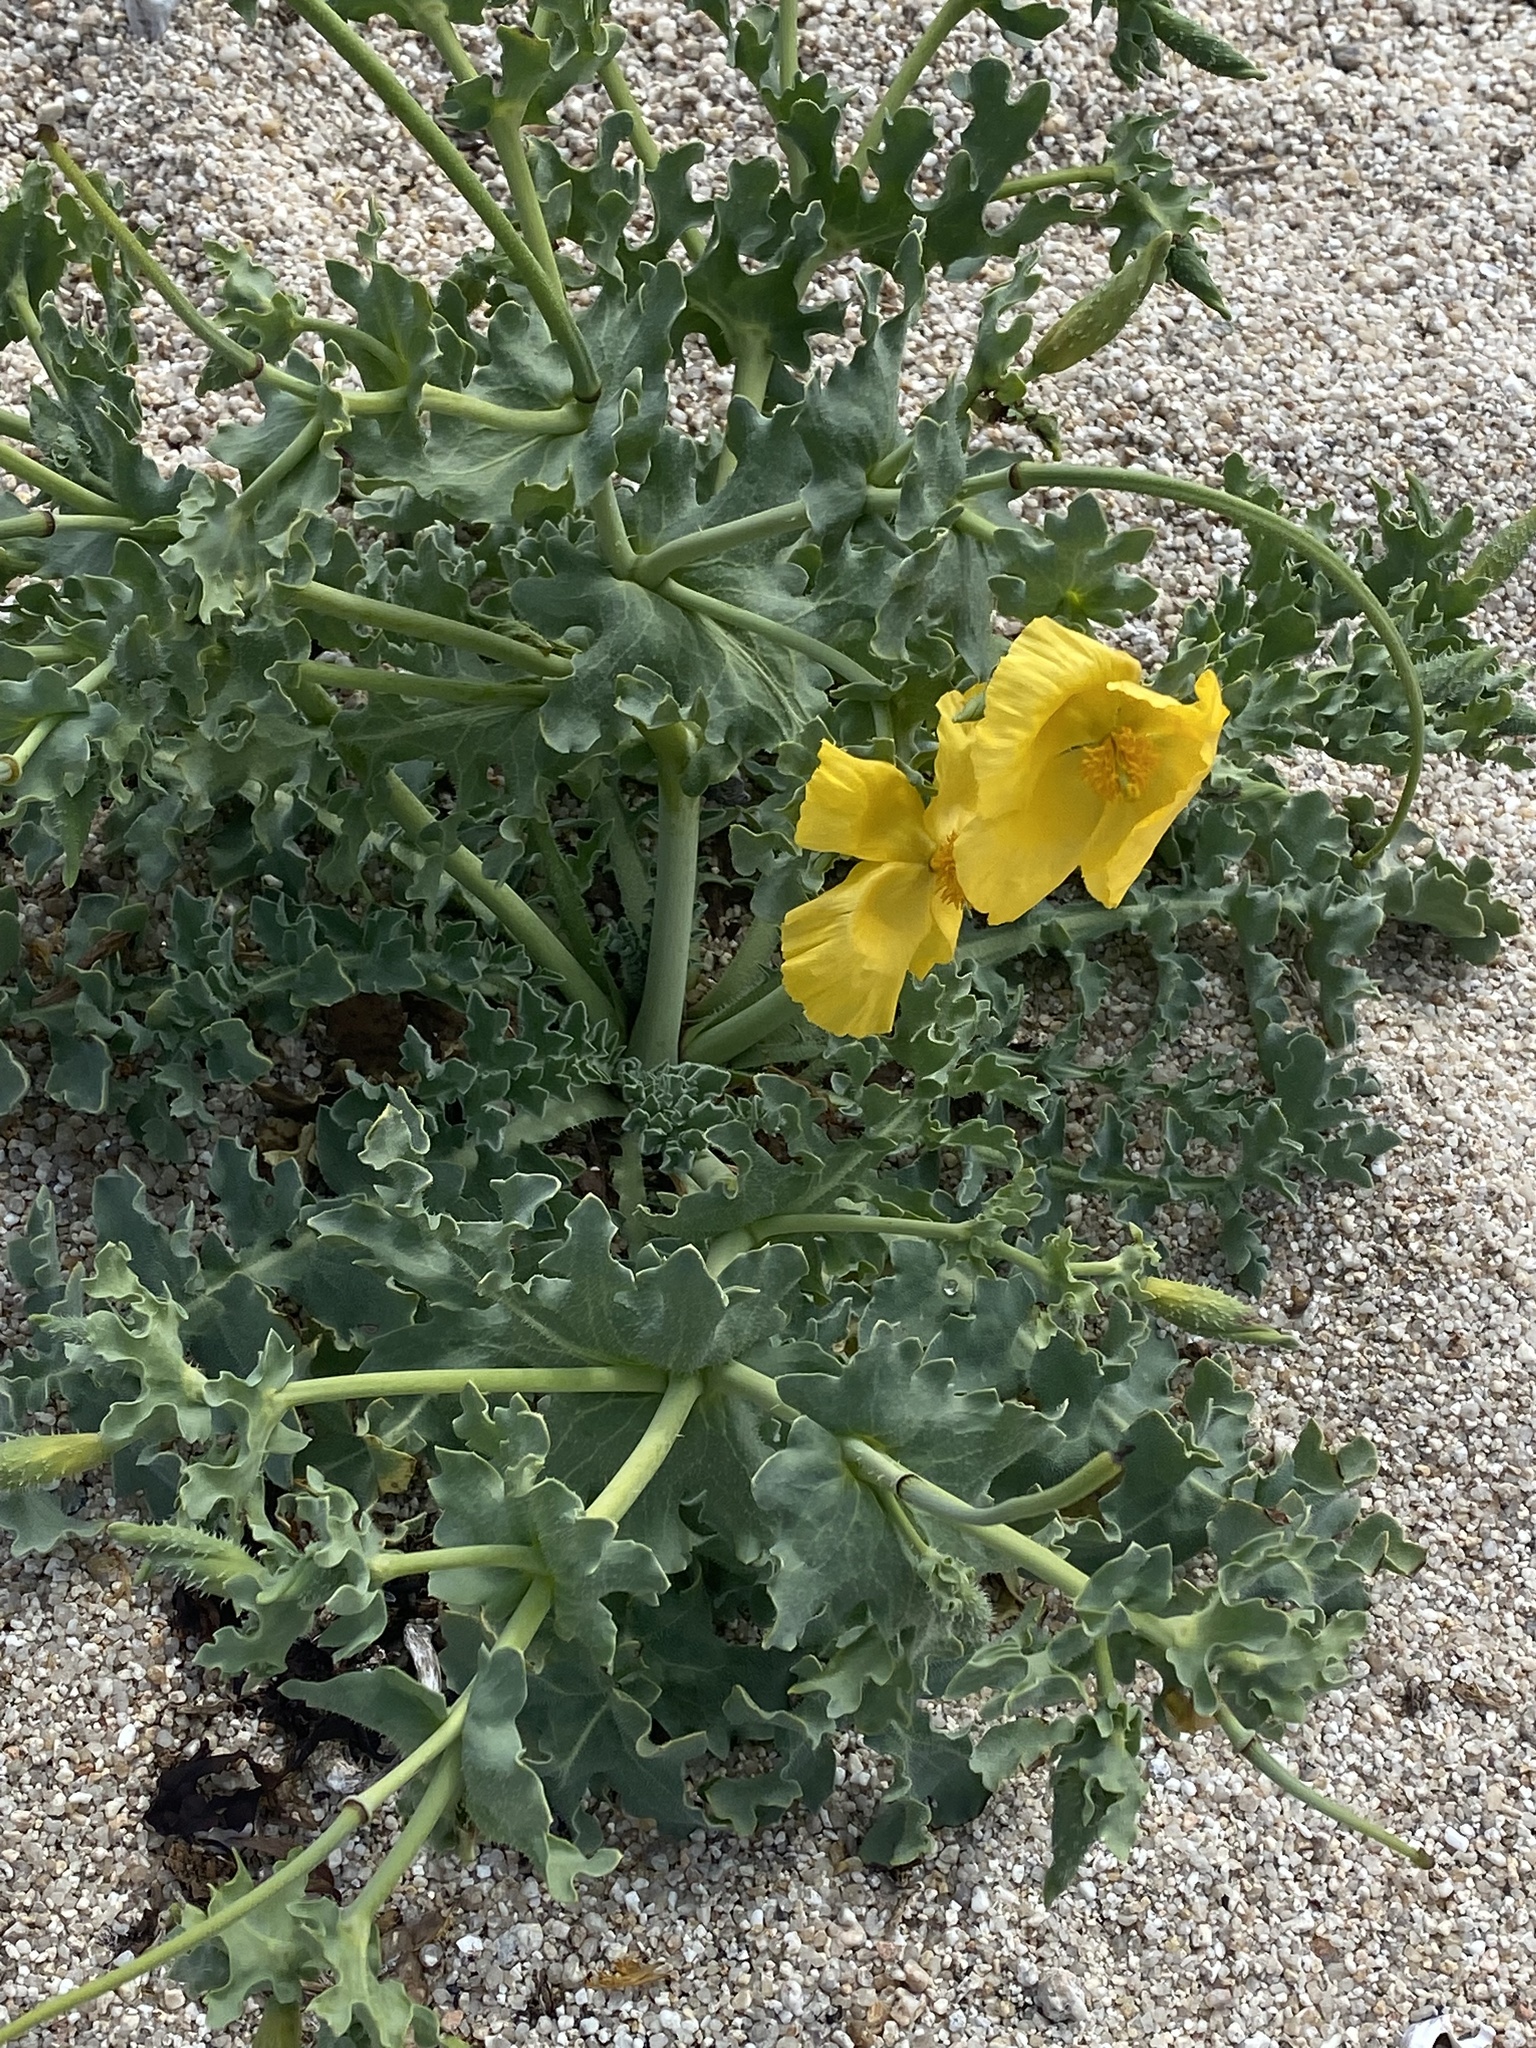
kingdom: Plantae
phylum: Tracheophyta
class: Magnoliopsida
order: Ranunculales
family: Papaveraceae
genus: Glaucium
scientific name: Glaucium flavum
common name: Yellow horned-poppy
